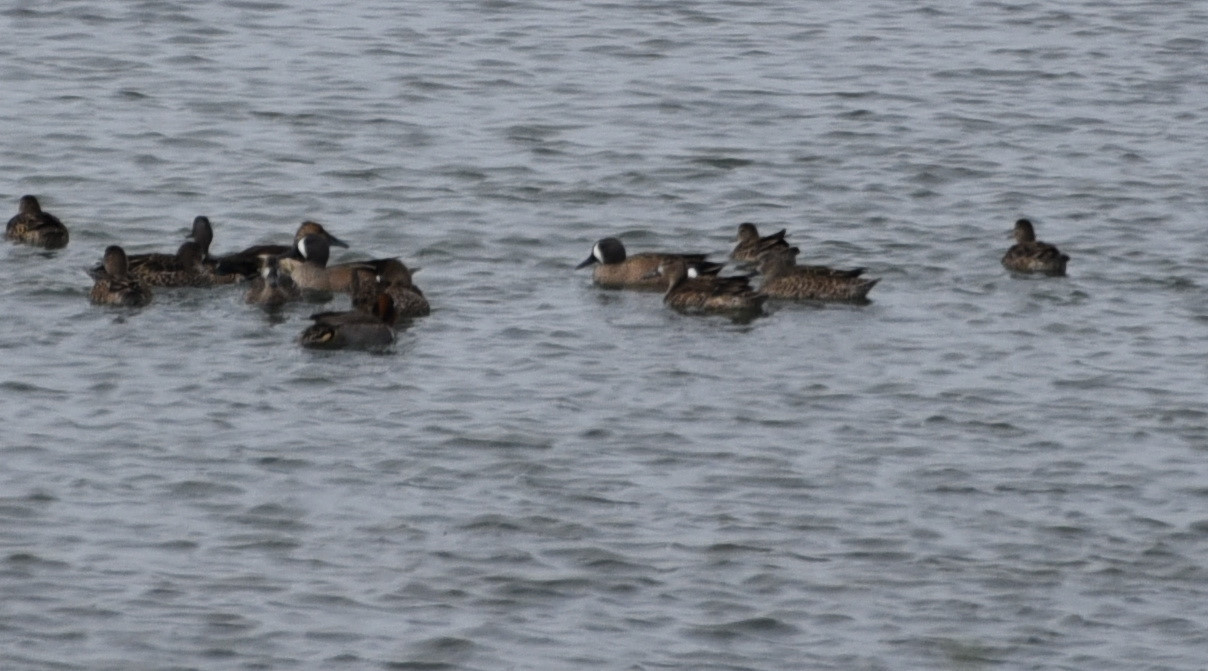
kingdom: Animalia
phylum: Chordata
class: Aves
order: Anseriformes
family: Anatidae
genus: Spatula
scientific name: Spatula discors
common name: Blue-winged teal
